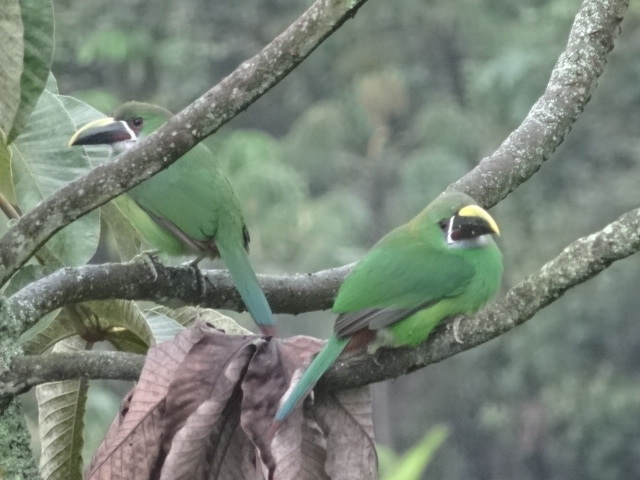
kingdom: Animalia
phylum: Chordata
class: Aves
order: Piciformes
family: Ramphastidae
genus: Aulacorhynchus
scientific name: Aulacorhynchus albivitta
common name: White-throated toucanet
